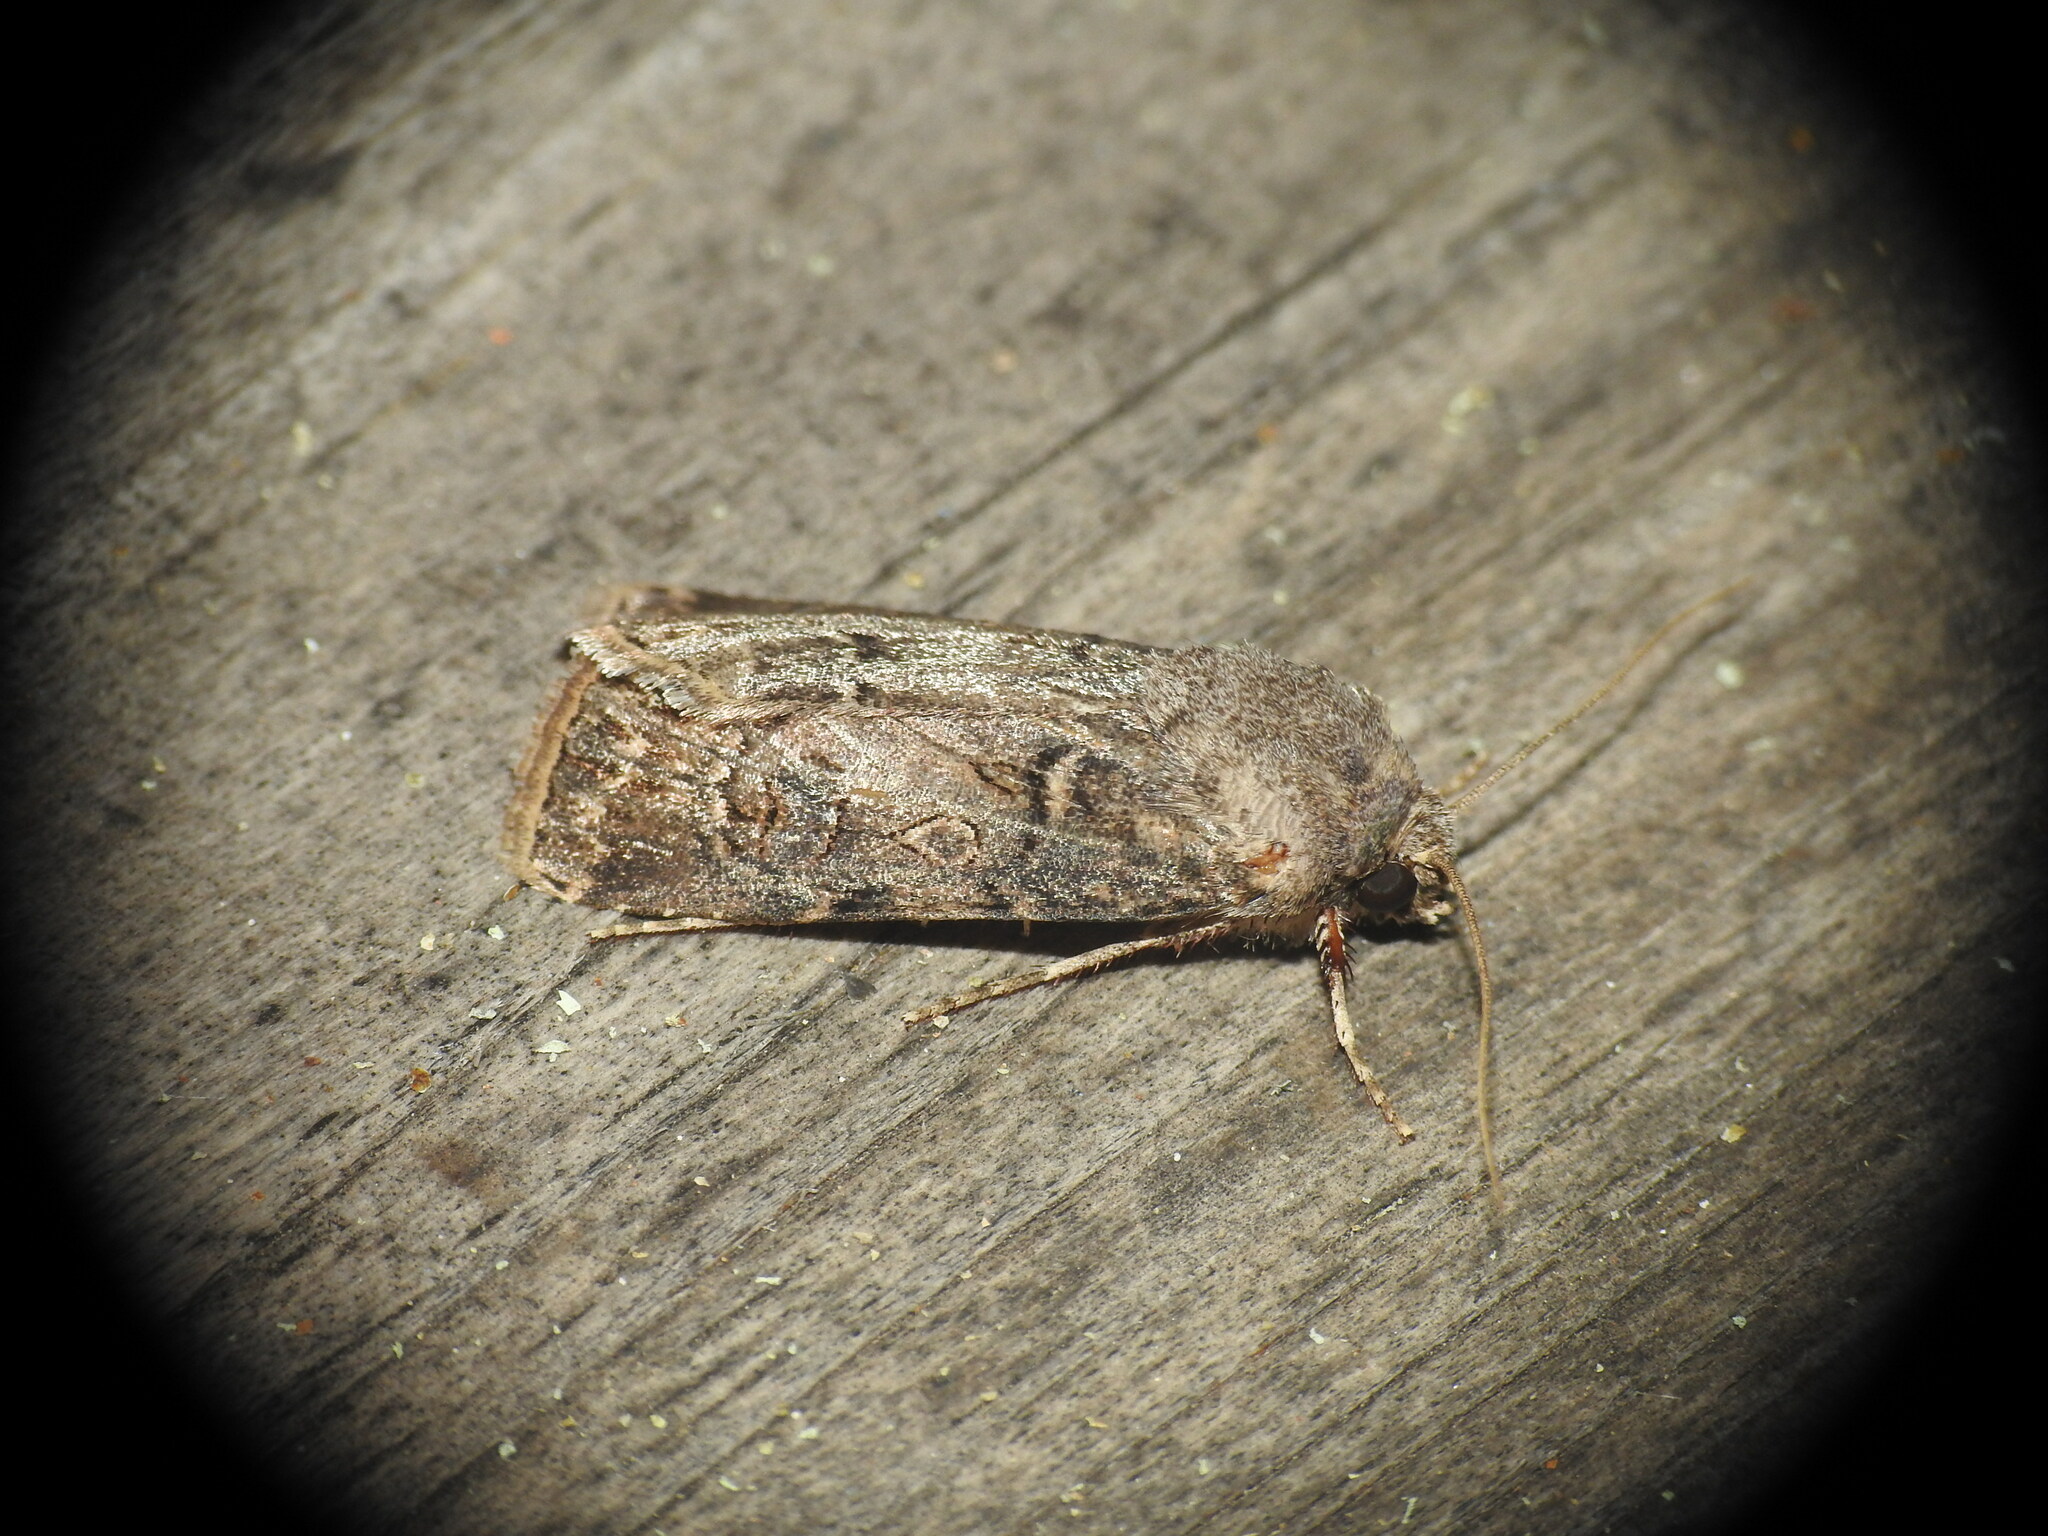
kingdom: Animalia
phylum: Arthropoda
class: Insecta
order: Lepidoptera
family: Noctuidae
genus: Agrotis
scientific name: Agrotis bigramma
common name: Great dart
